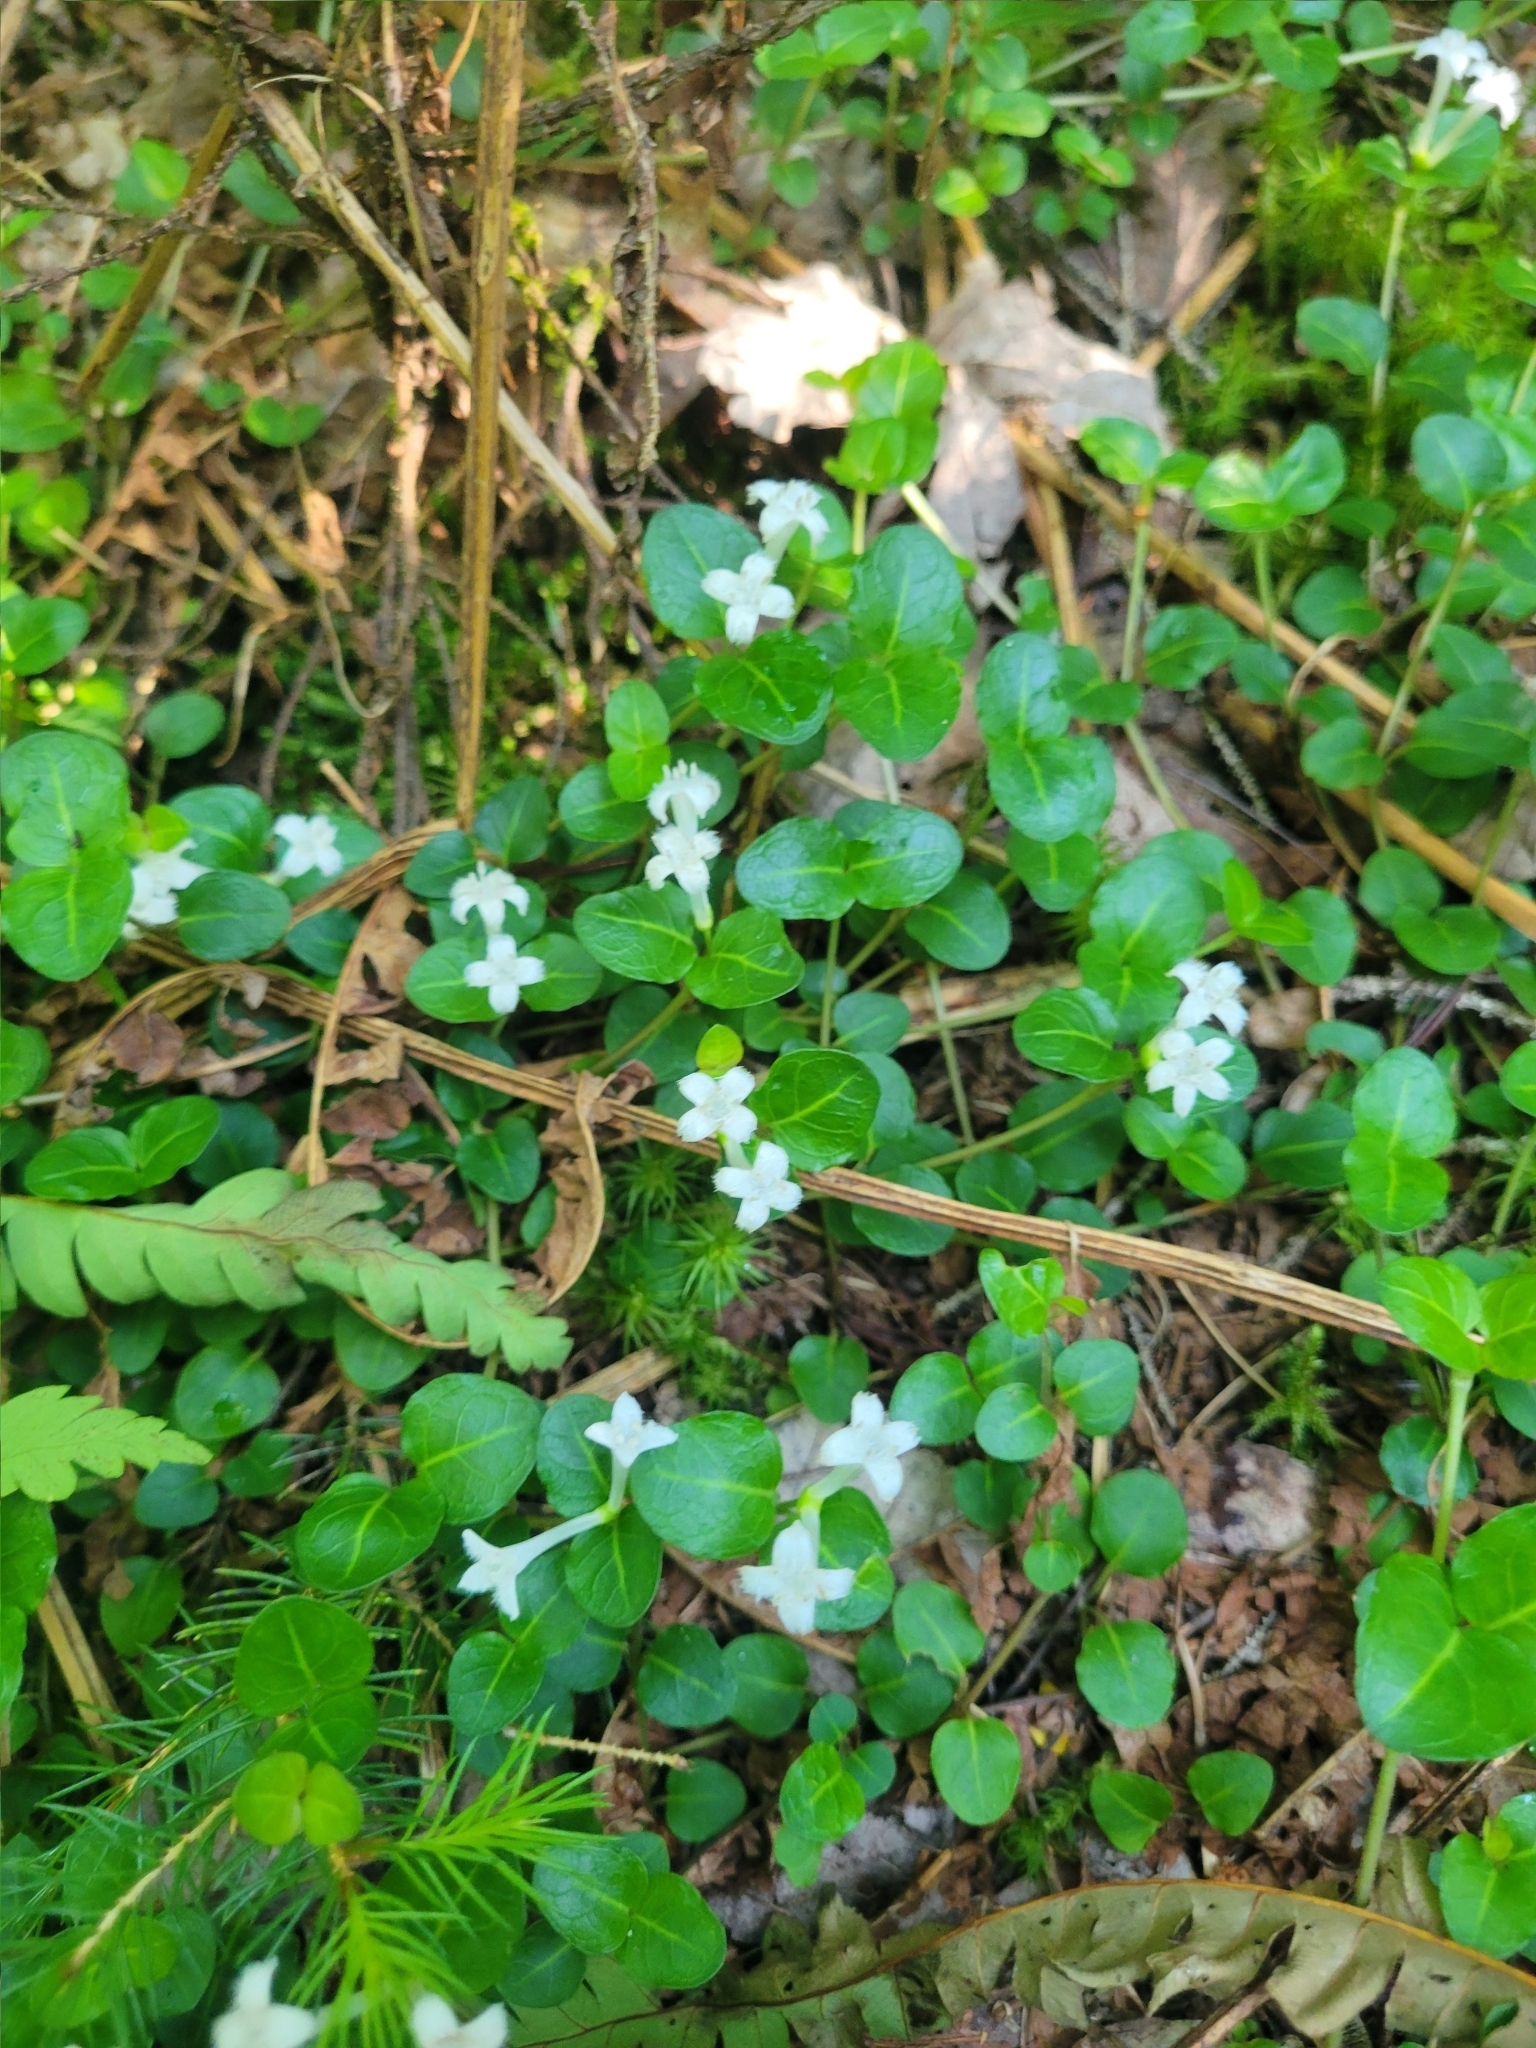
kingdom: Plantae
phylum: Tracheophyta
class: Magnoliopsida
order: Gentianales
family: Rubiaceae
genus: Mitchella
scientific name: Mitchella repens
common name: Partridge-berry
